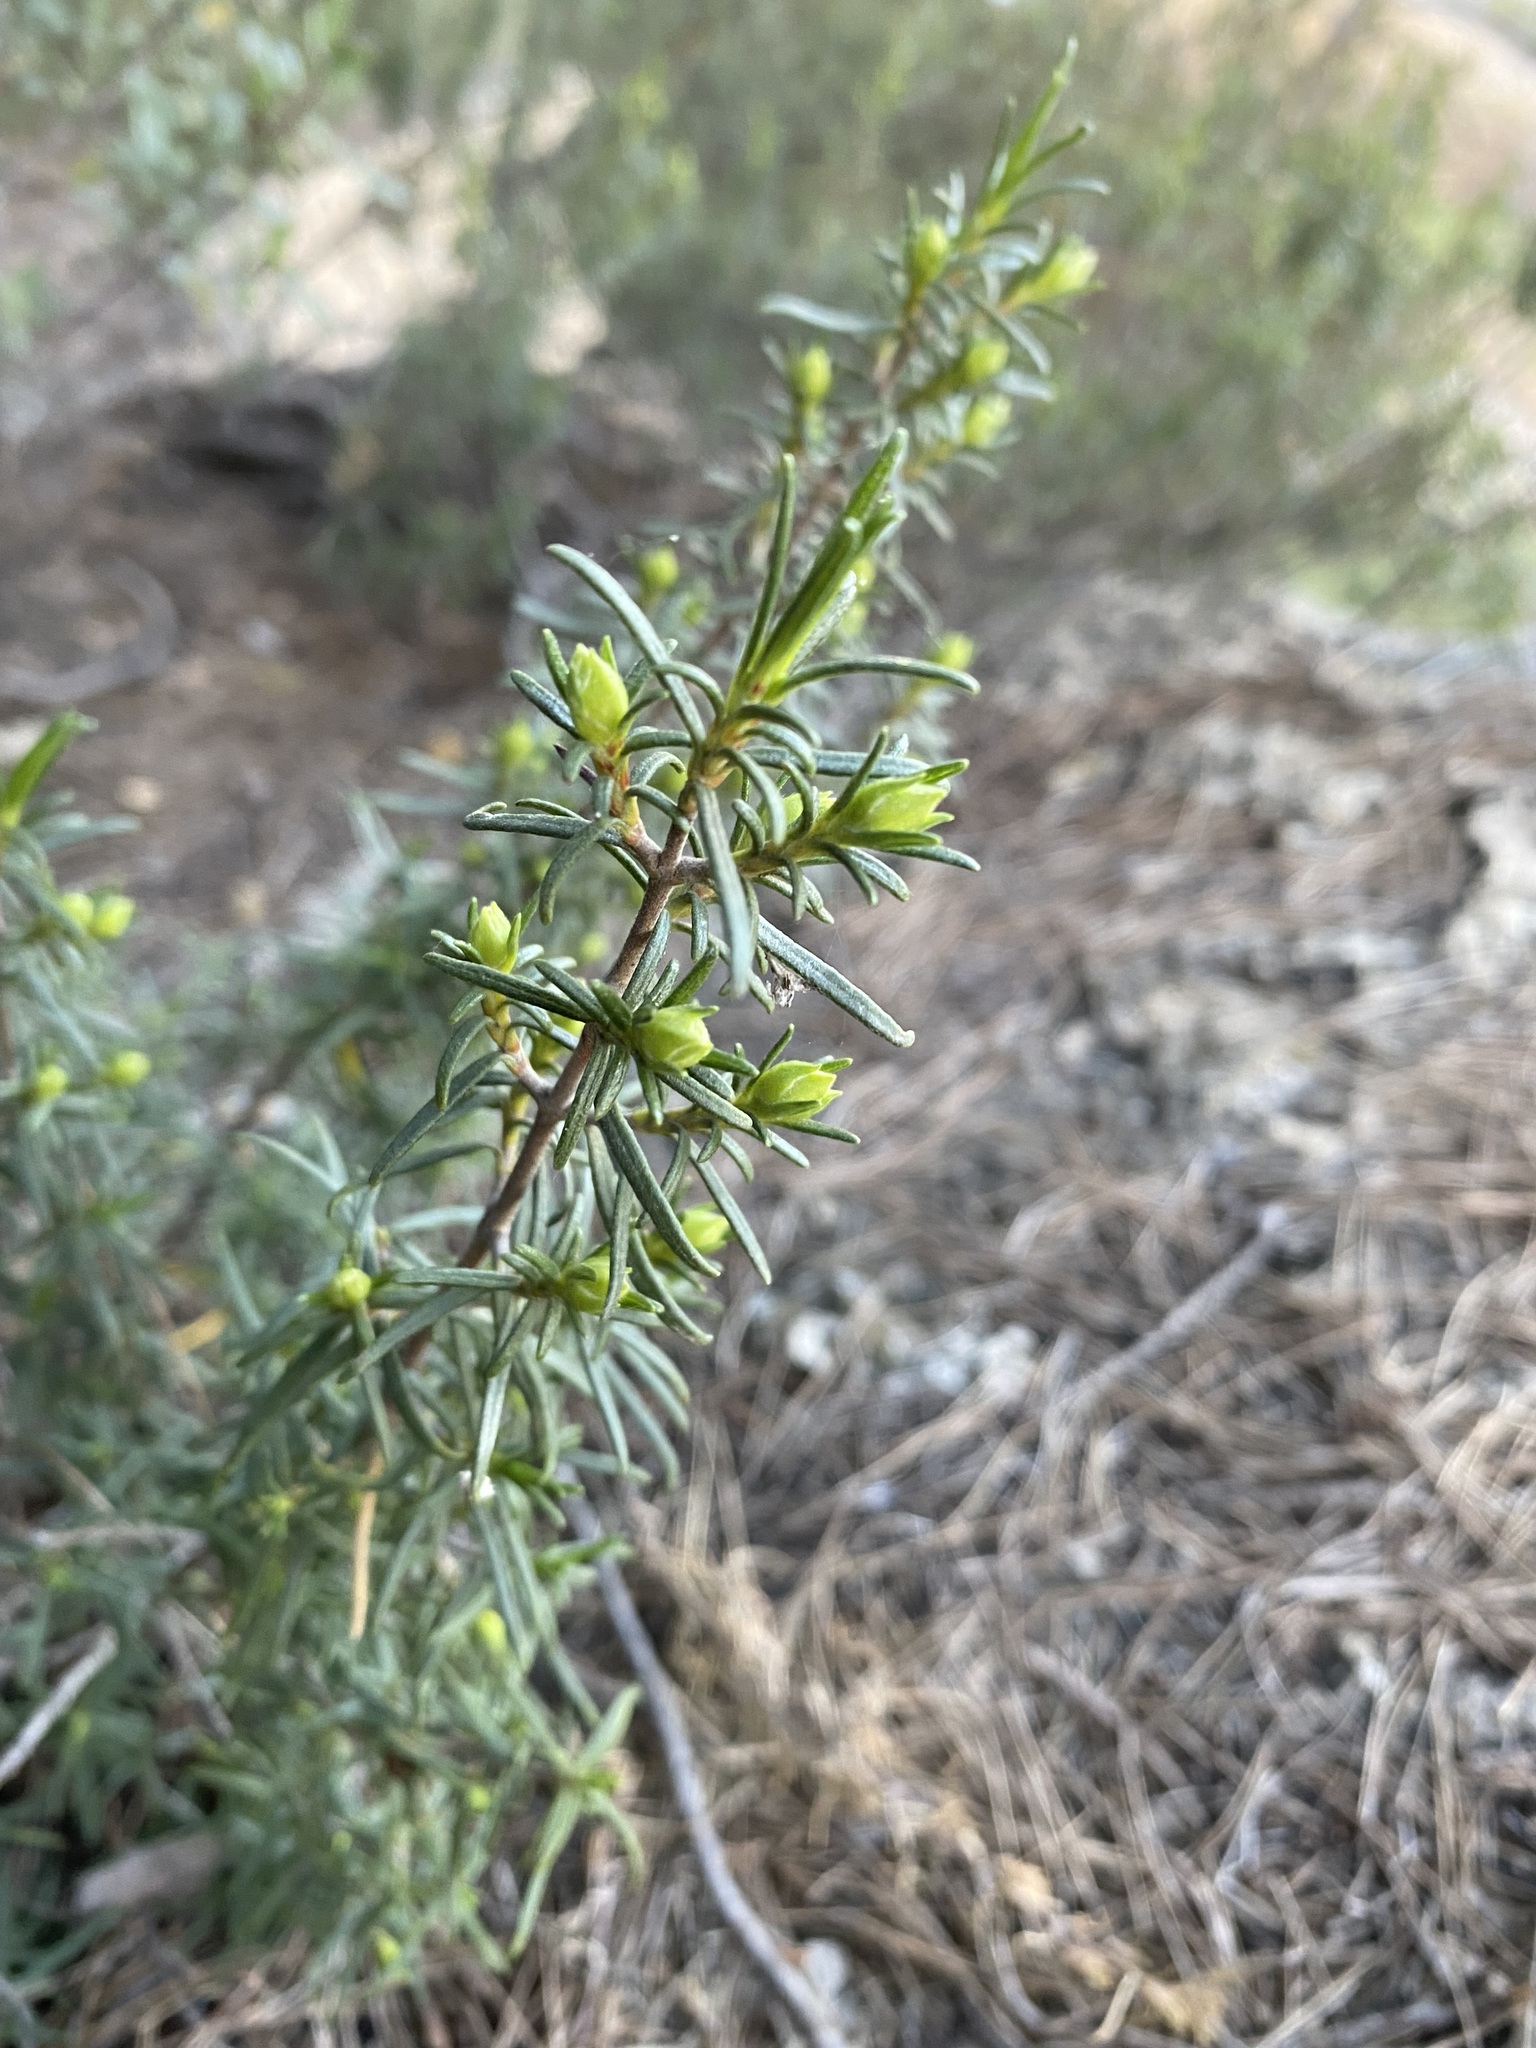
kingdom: Plantae
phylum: Tracheophyta
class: Magnoliopsida
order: Malvales
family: Cistaceae
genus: Cistus
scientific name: Cistus clusii
